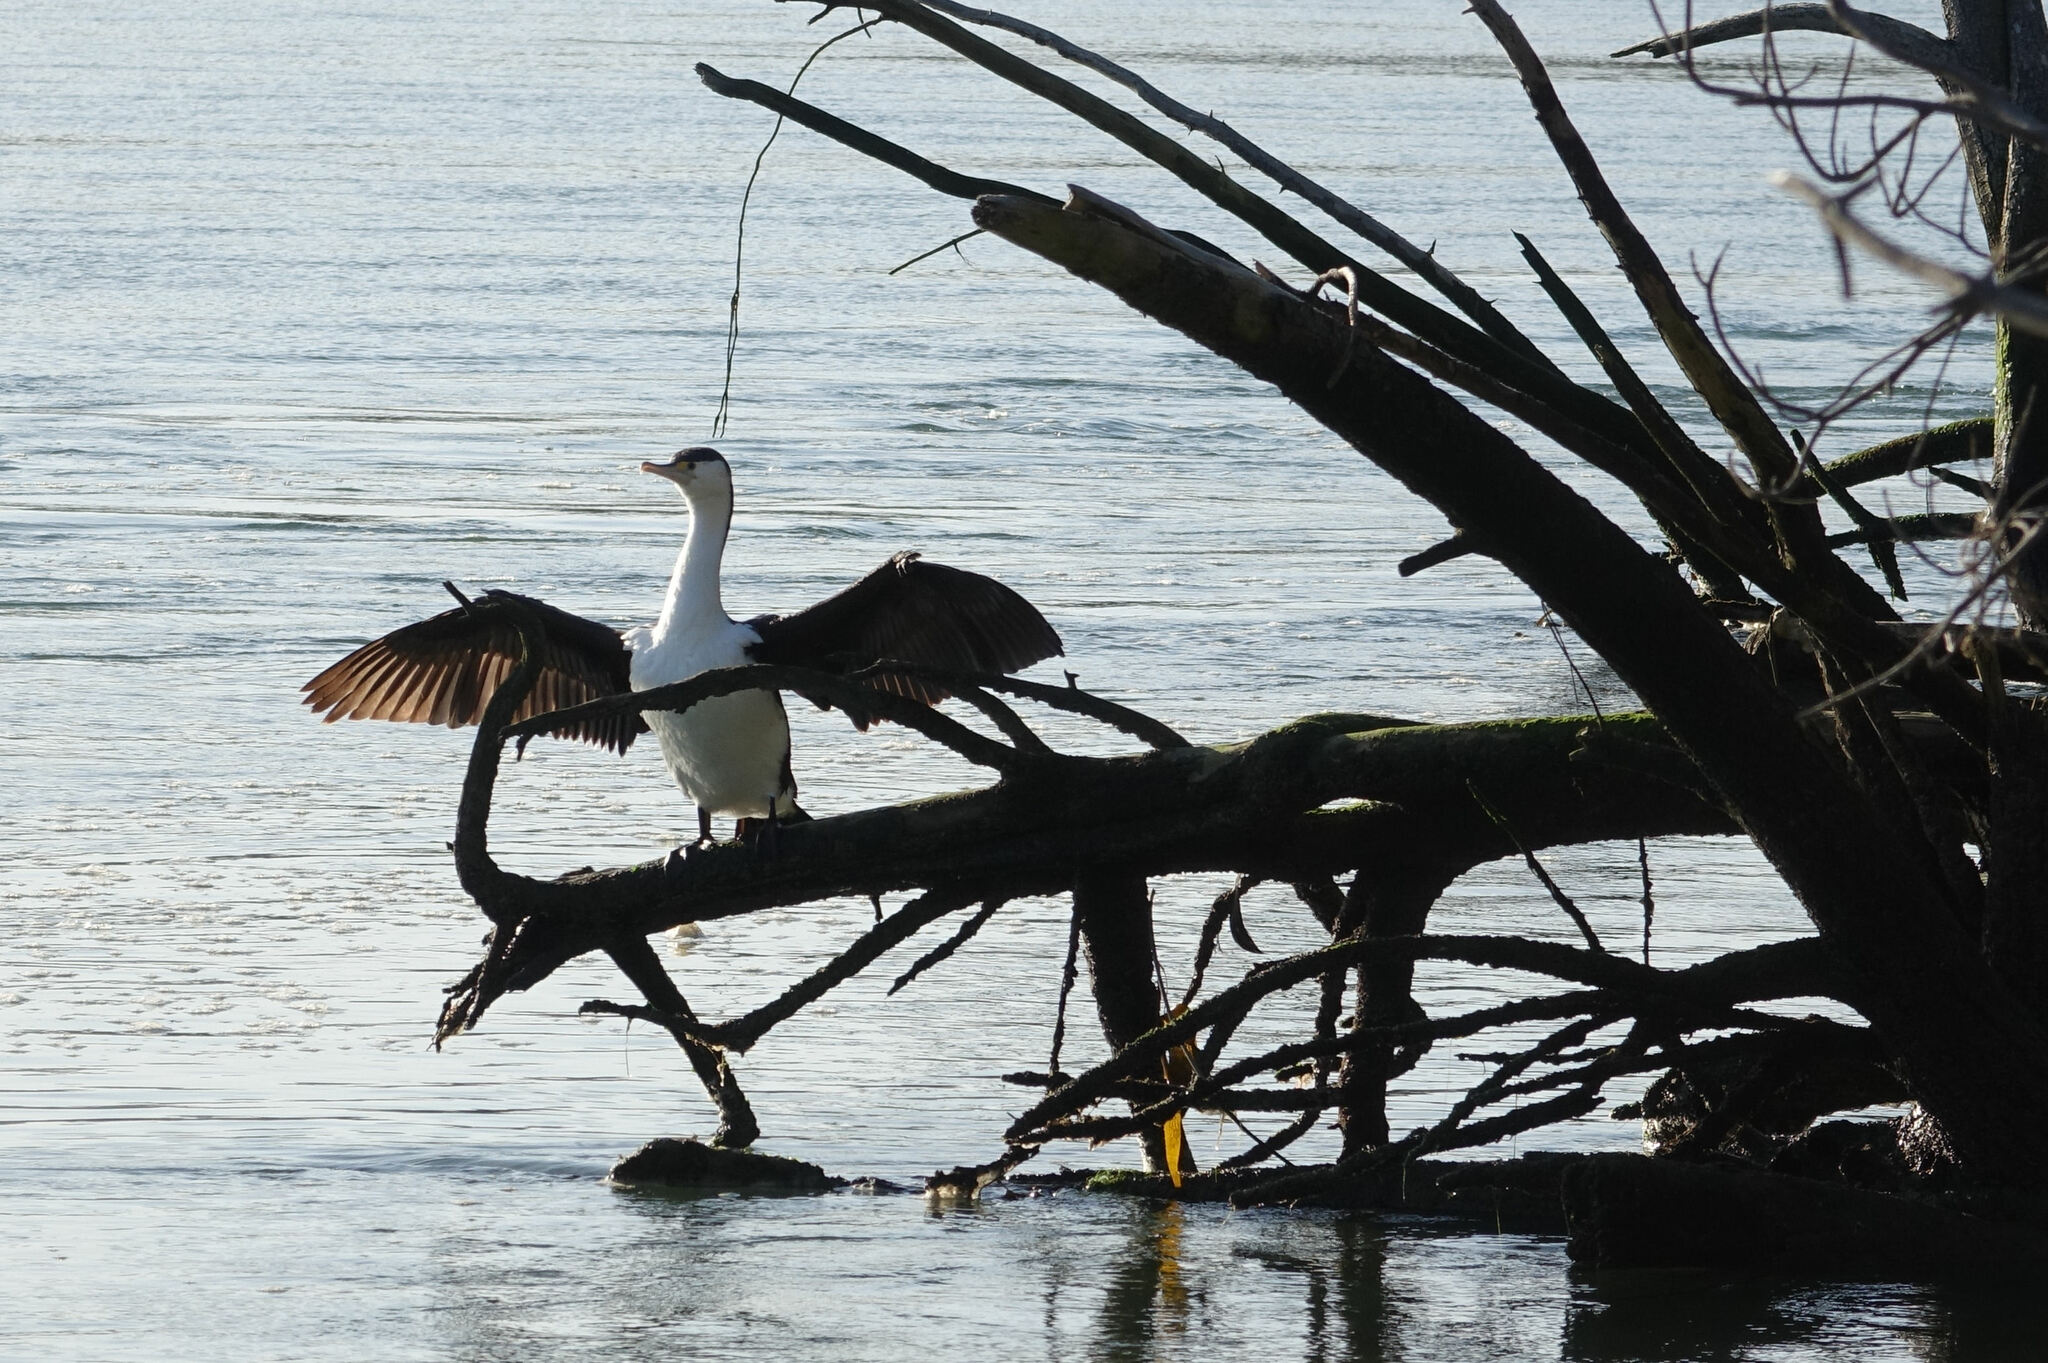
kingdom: Animalia
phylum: Chordata
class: Aves
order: Suliformes
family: Phalacrocoracidae
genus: Phalacrocorax
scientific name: Phalacrocorax varius
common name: Pied cormorant
